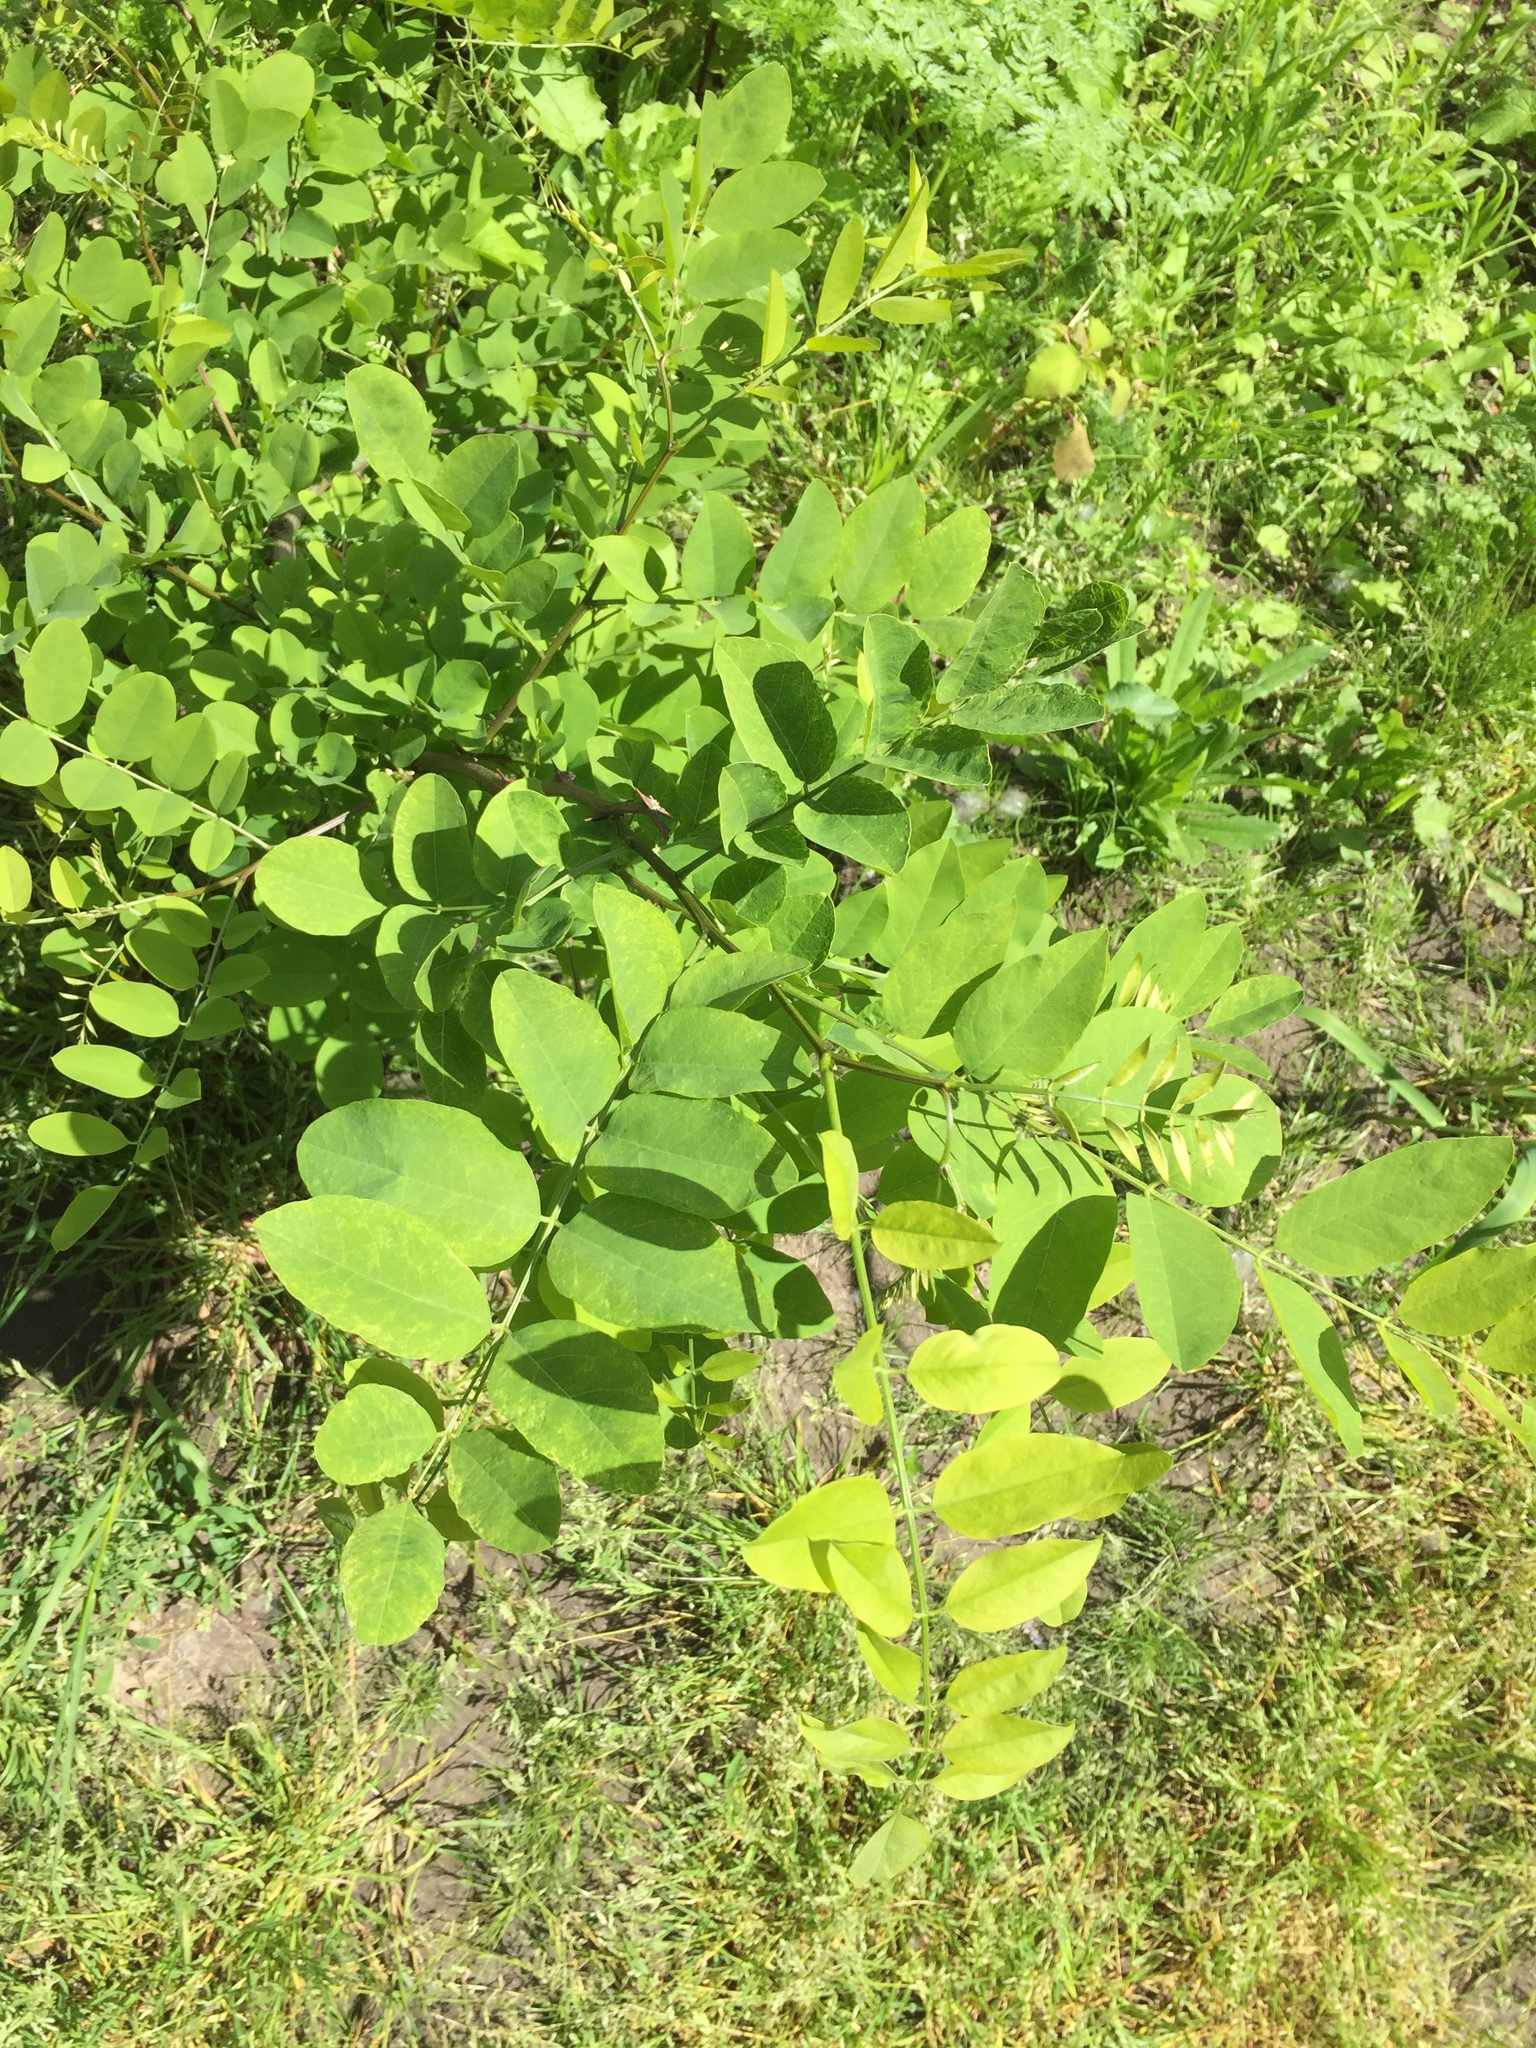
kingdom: Plantae
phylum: Tracheophyta
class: Magnoliopsida
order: Fabales
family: Fabaceae
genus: Robinia
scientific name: Robinia pseudoacacia
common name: Black locust
